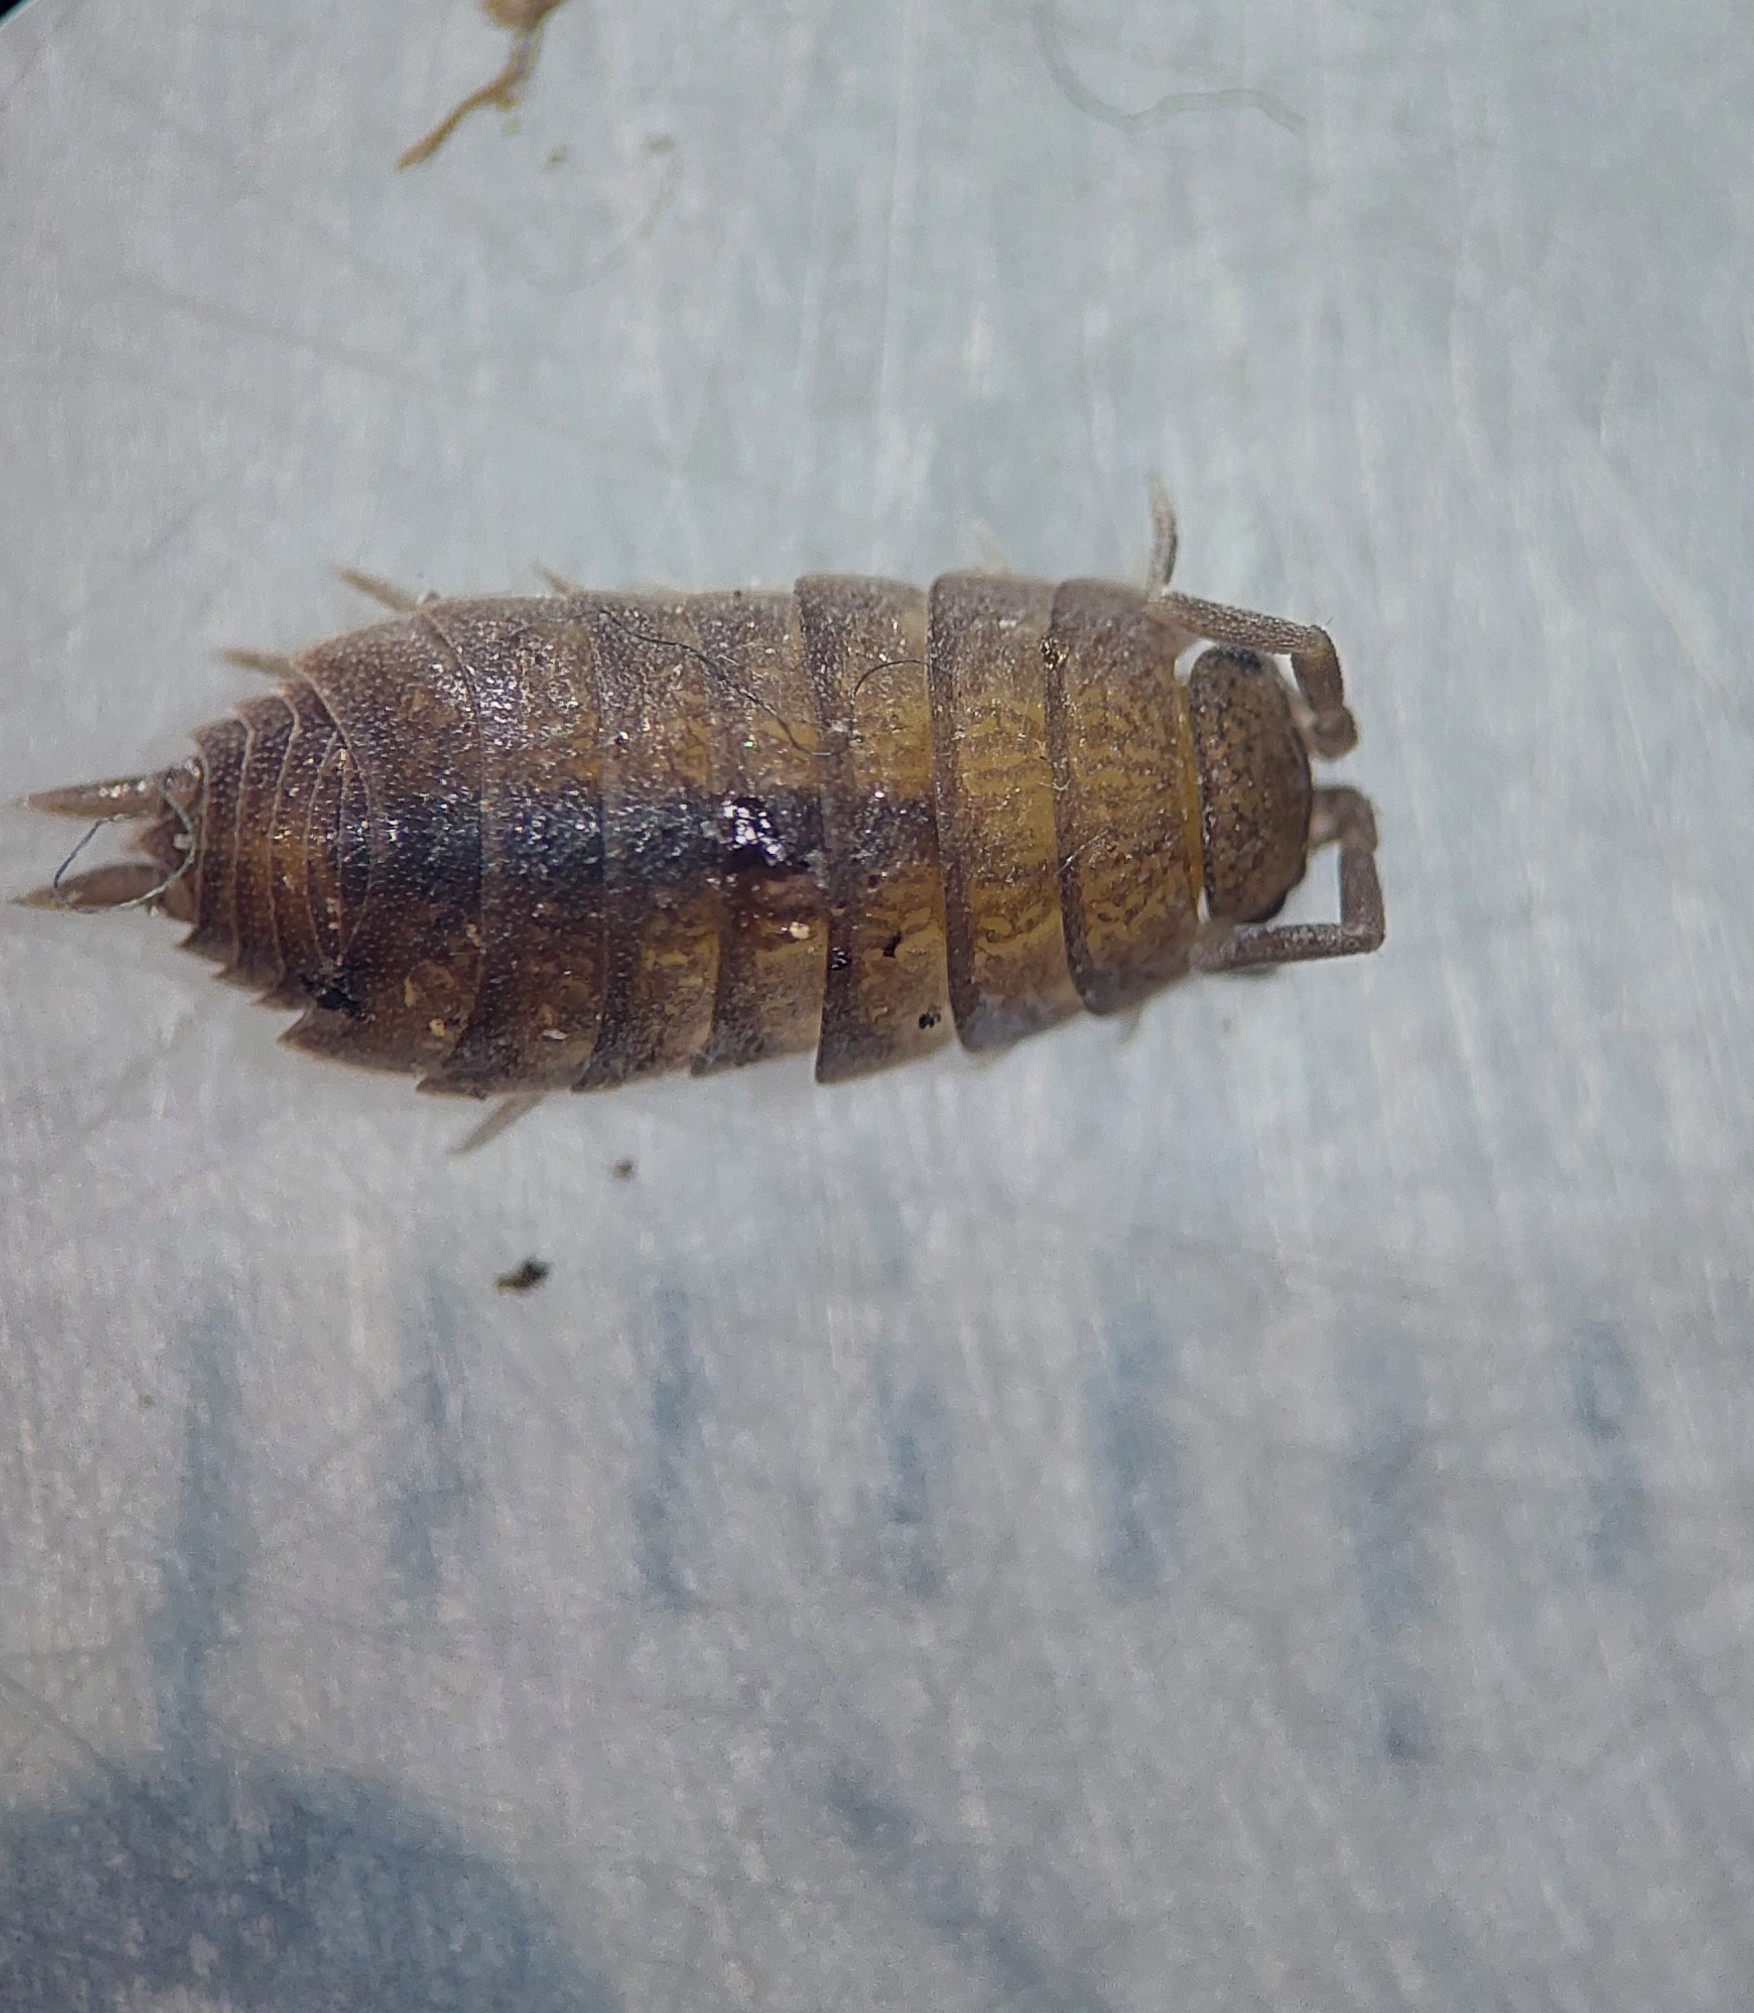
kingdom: Animalia
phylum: Arthropoda
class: Malacostraca
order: Isopoda
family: Porcellionidae
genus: Porcellionides
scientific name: Porcellionides
